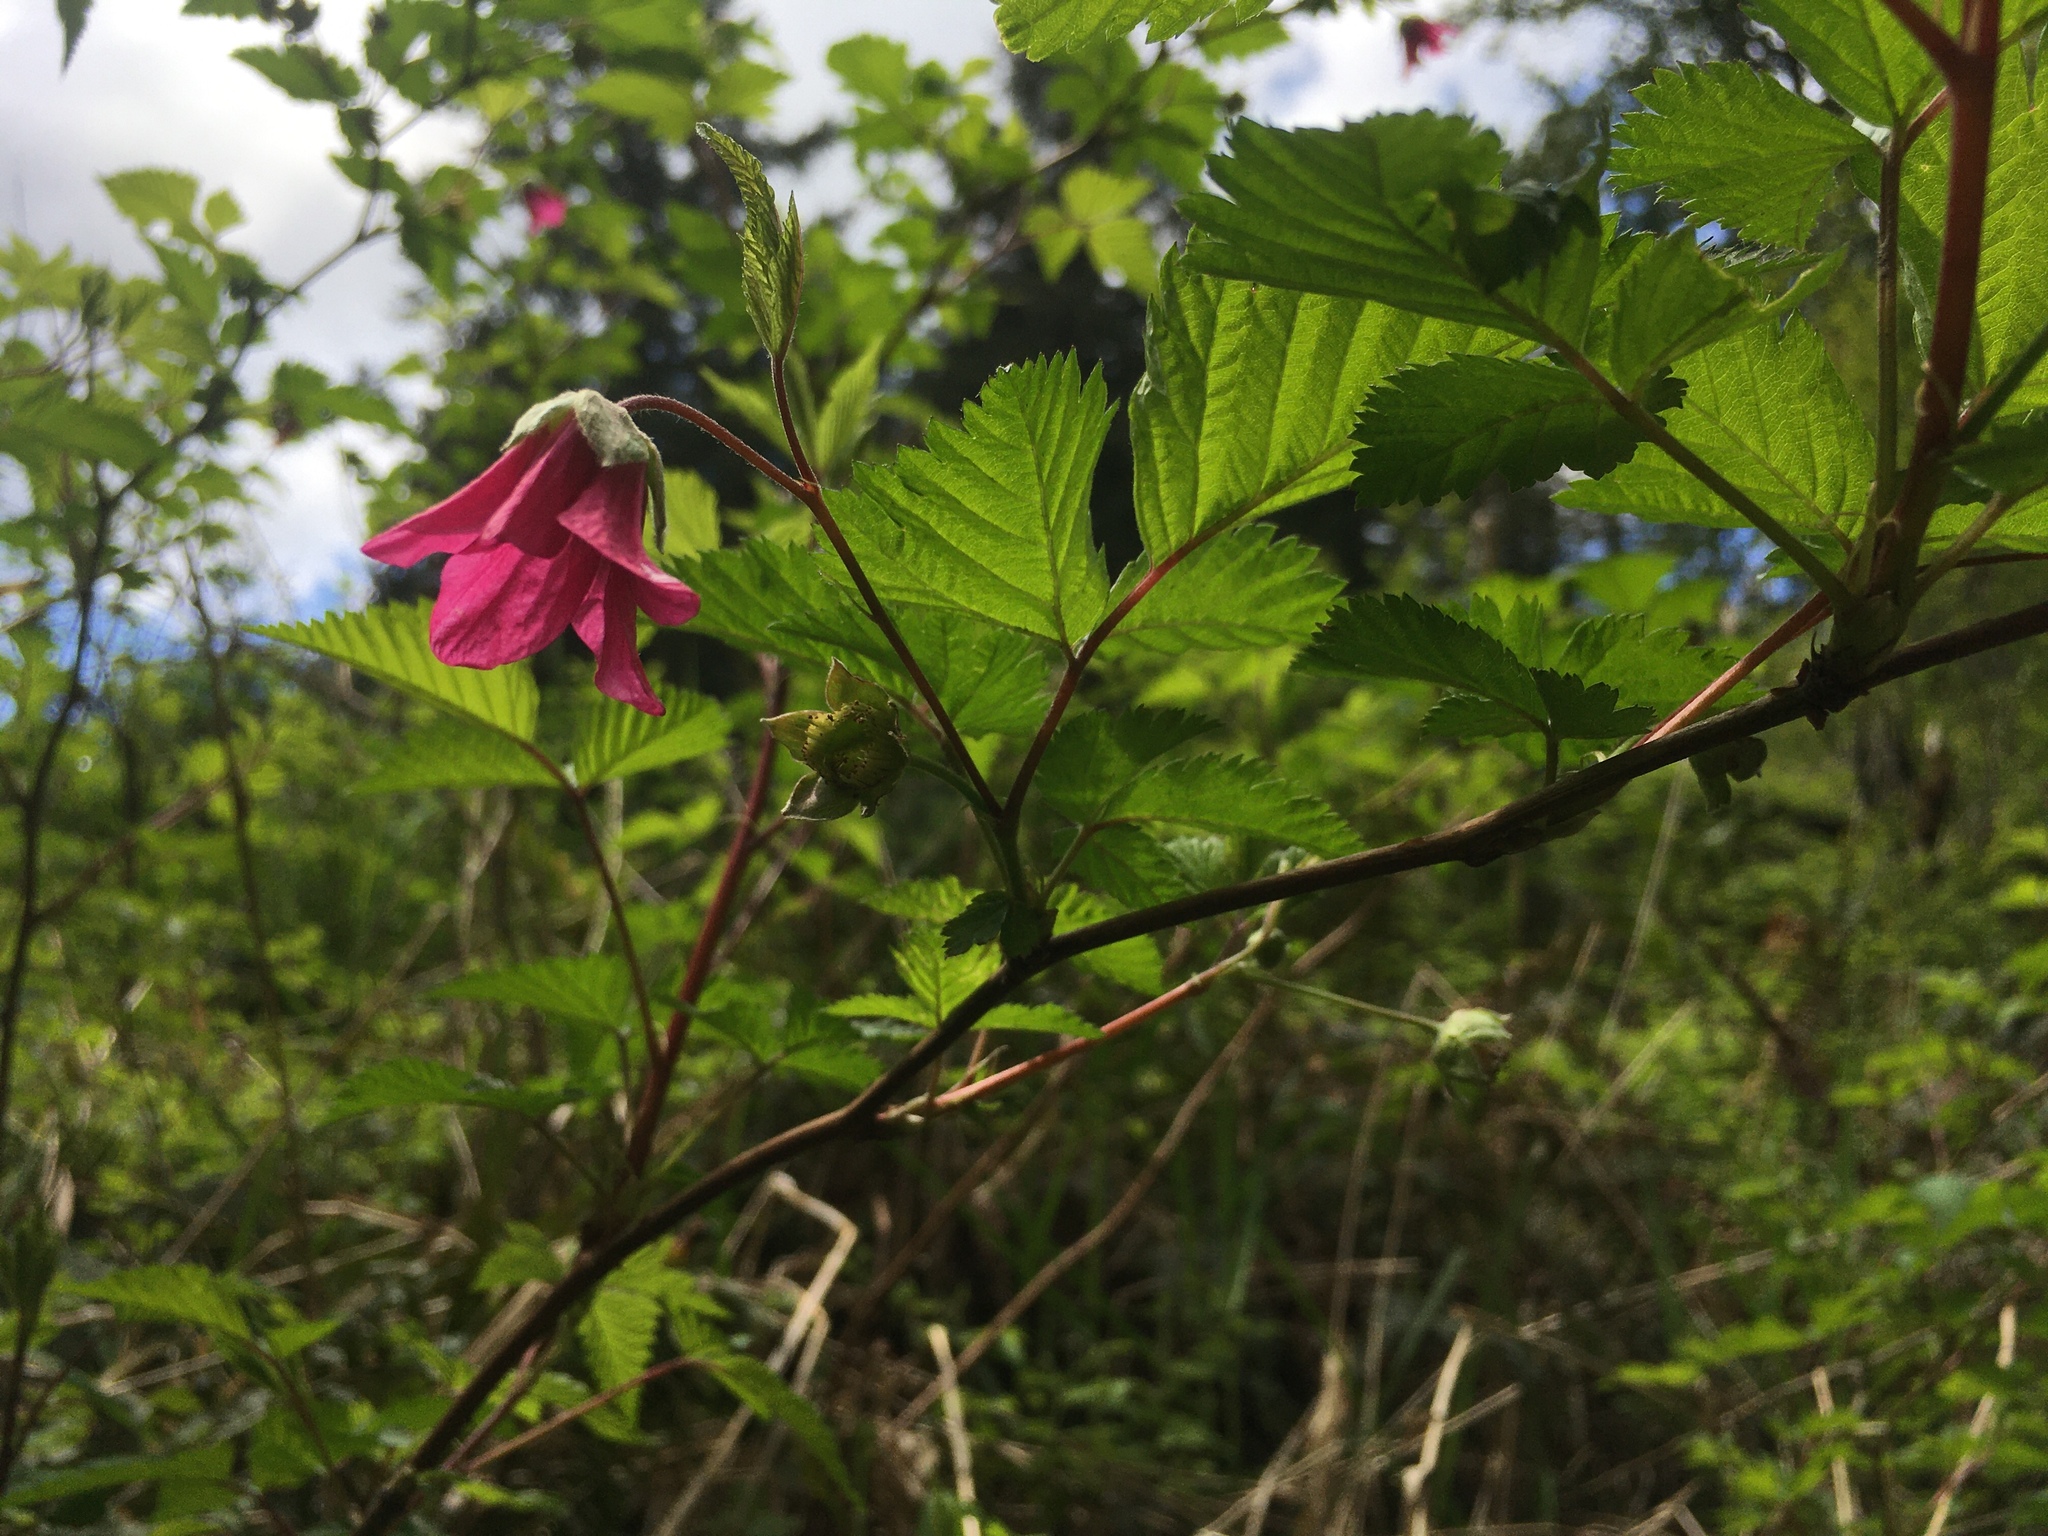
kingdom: Plantae
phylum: Tracheophyta
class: Magnoliopsida
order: Rosales
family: Rosaceae
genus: Rubus
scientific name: Rubus spectabilis
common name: Salmonberry
